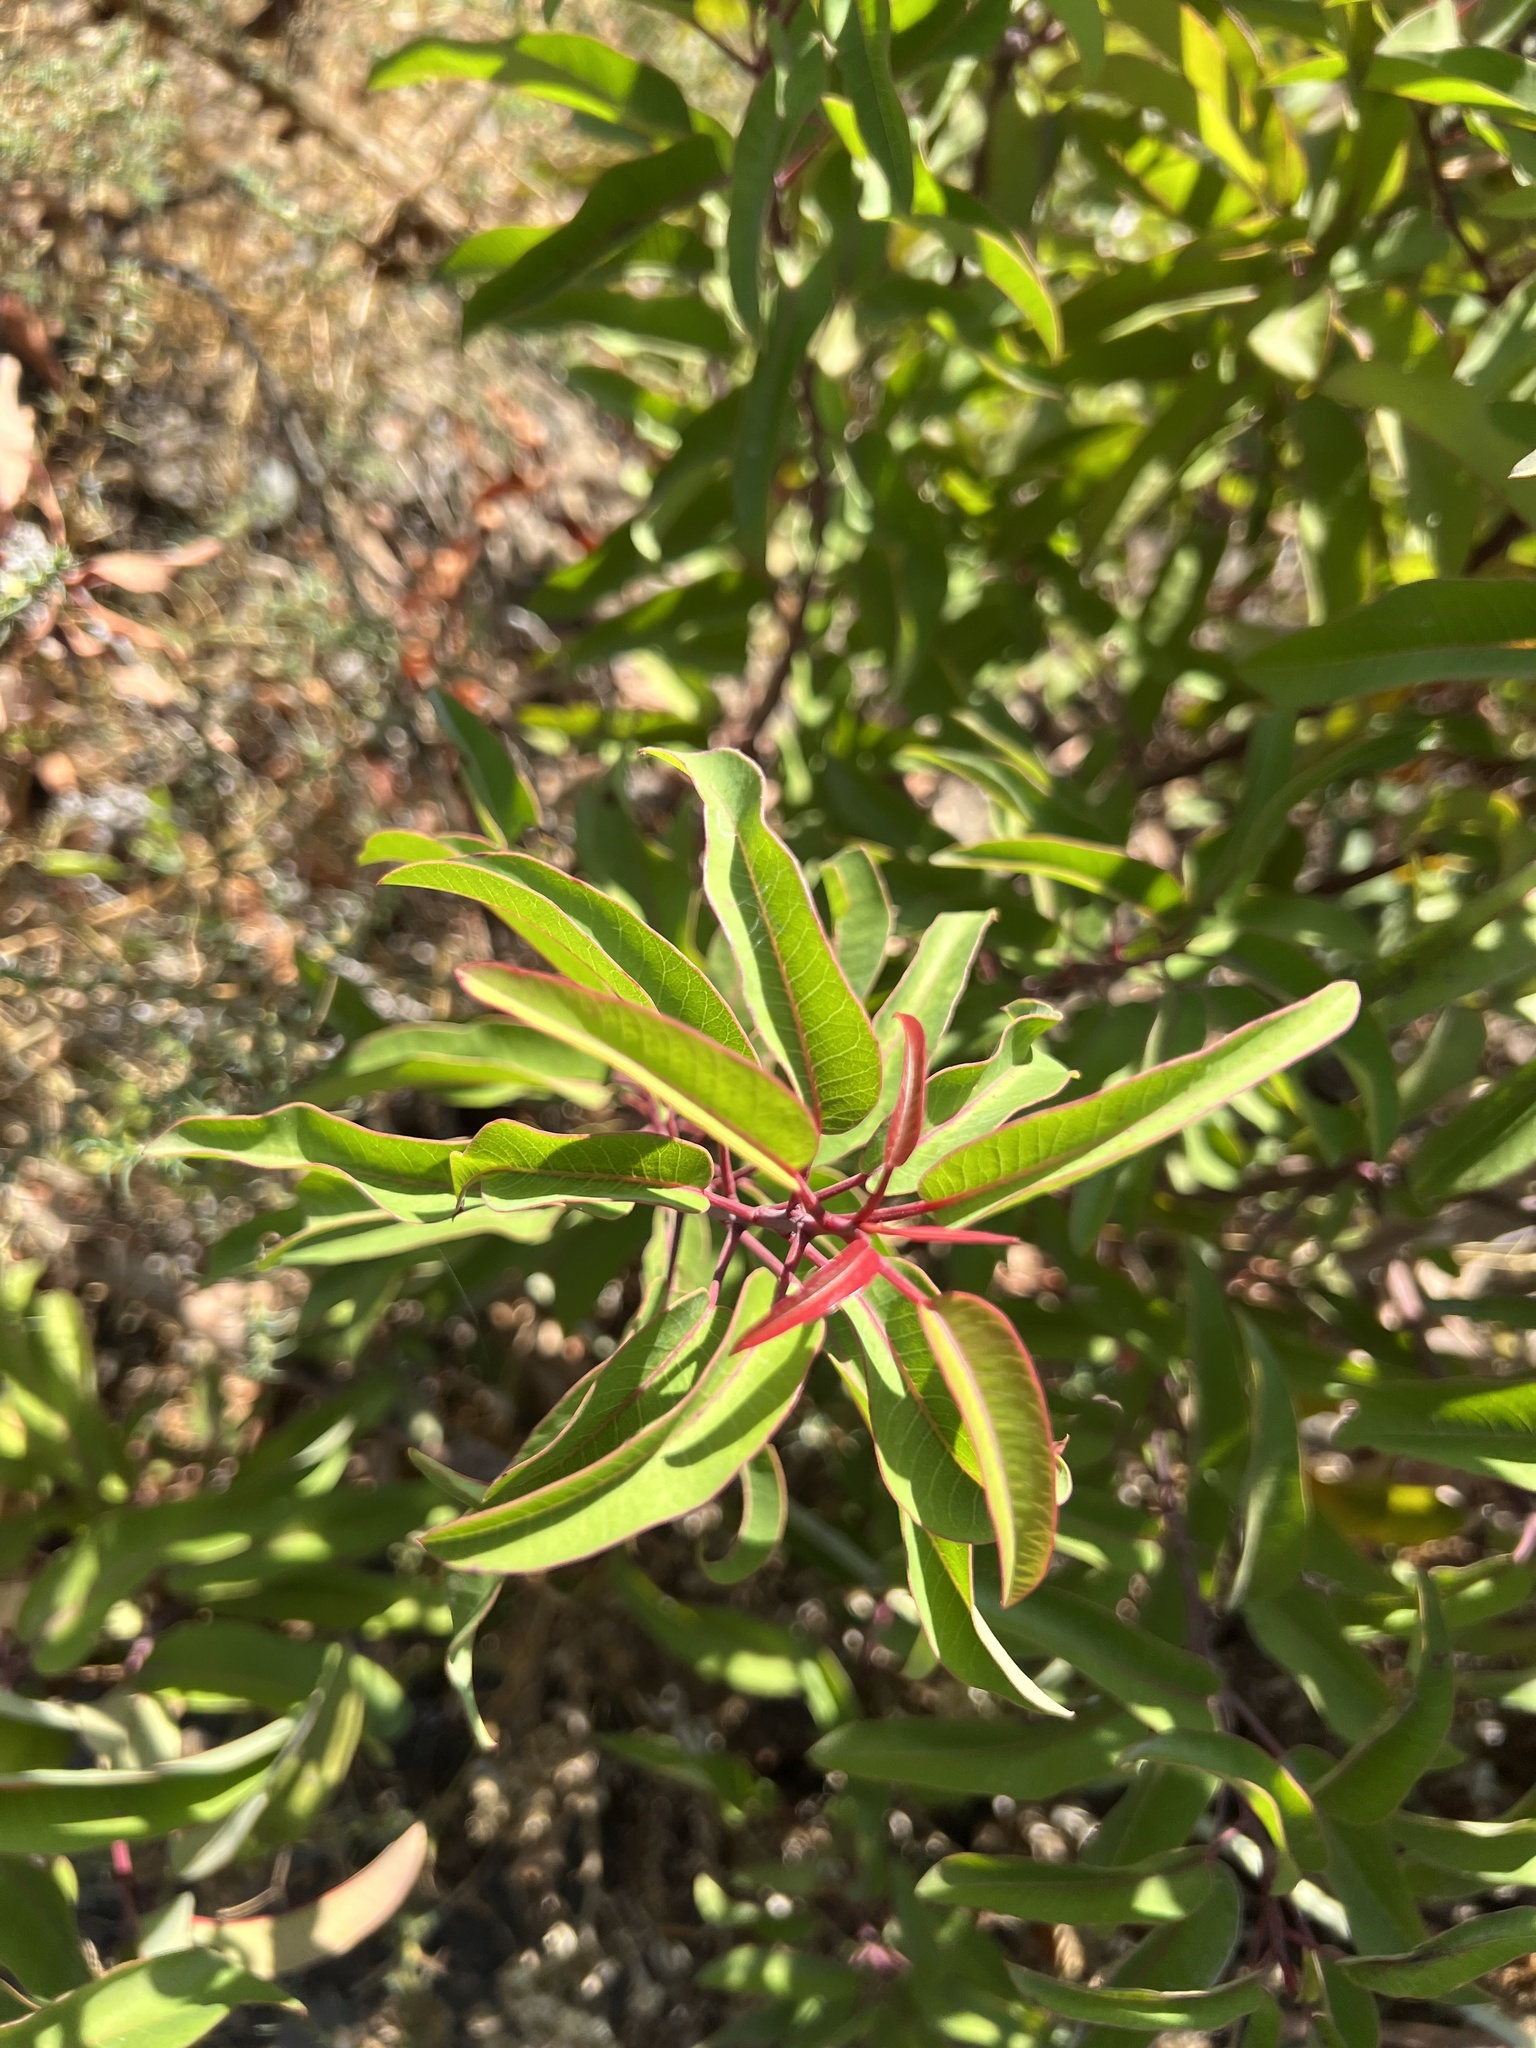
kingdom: Plantae
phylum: Tracheophyta
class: Magnoliopsida
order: Sapindales
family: Anacardiaceae
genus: Malosma
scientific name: Malosma laurina
